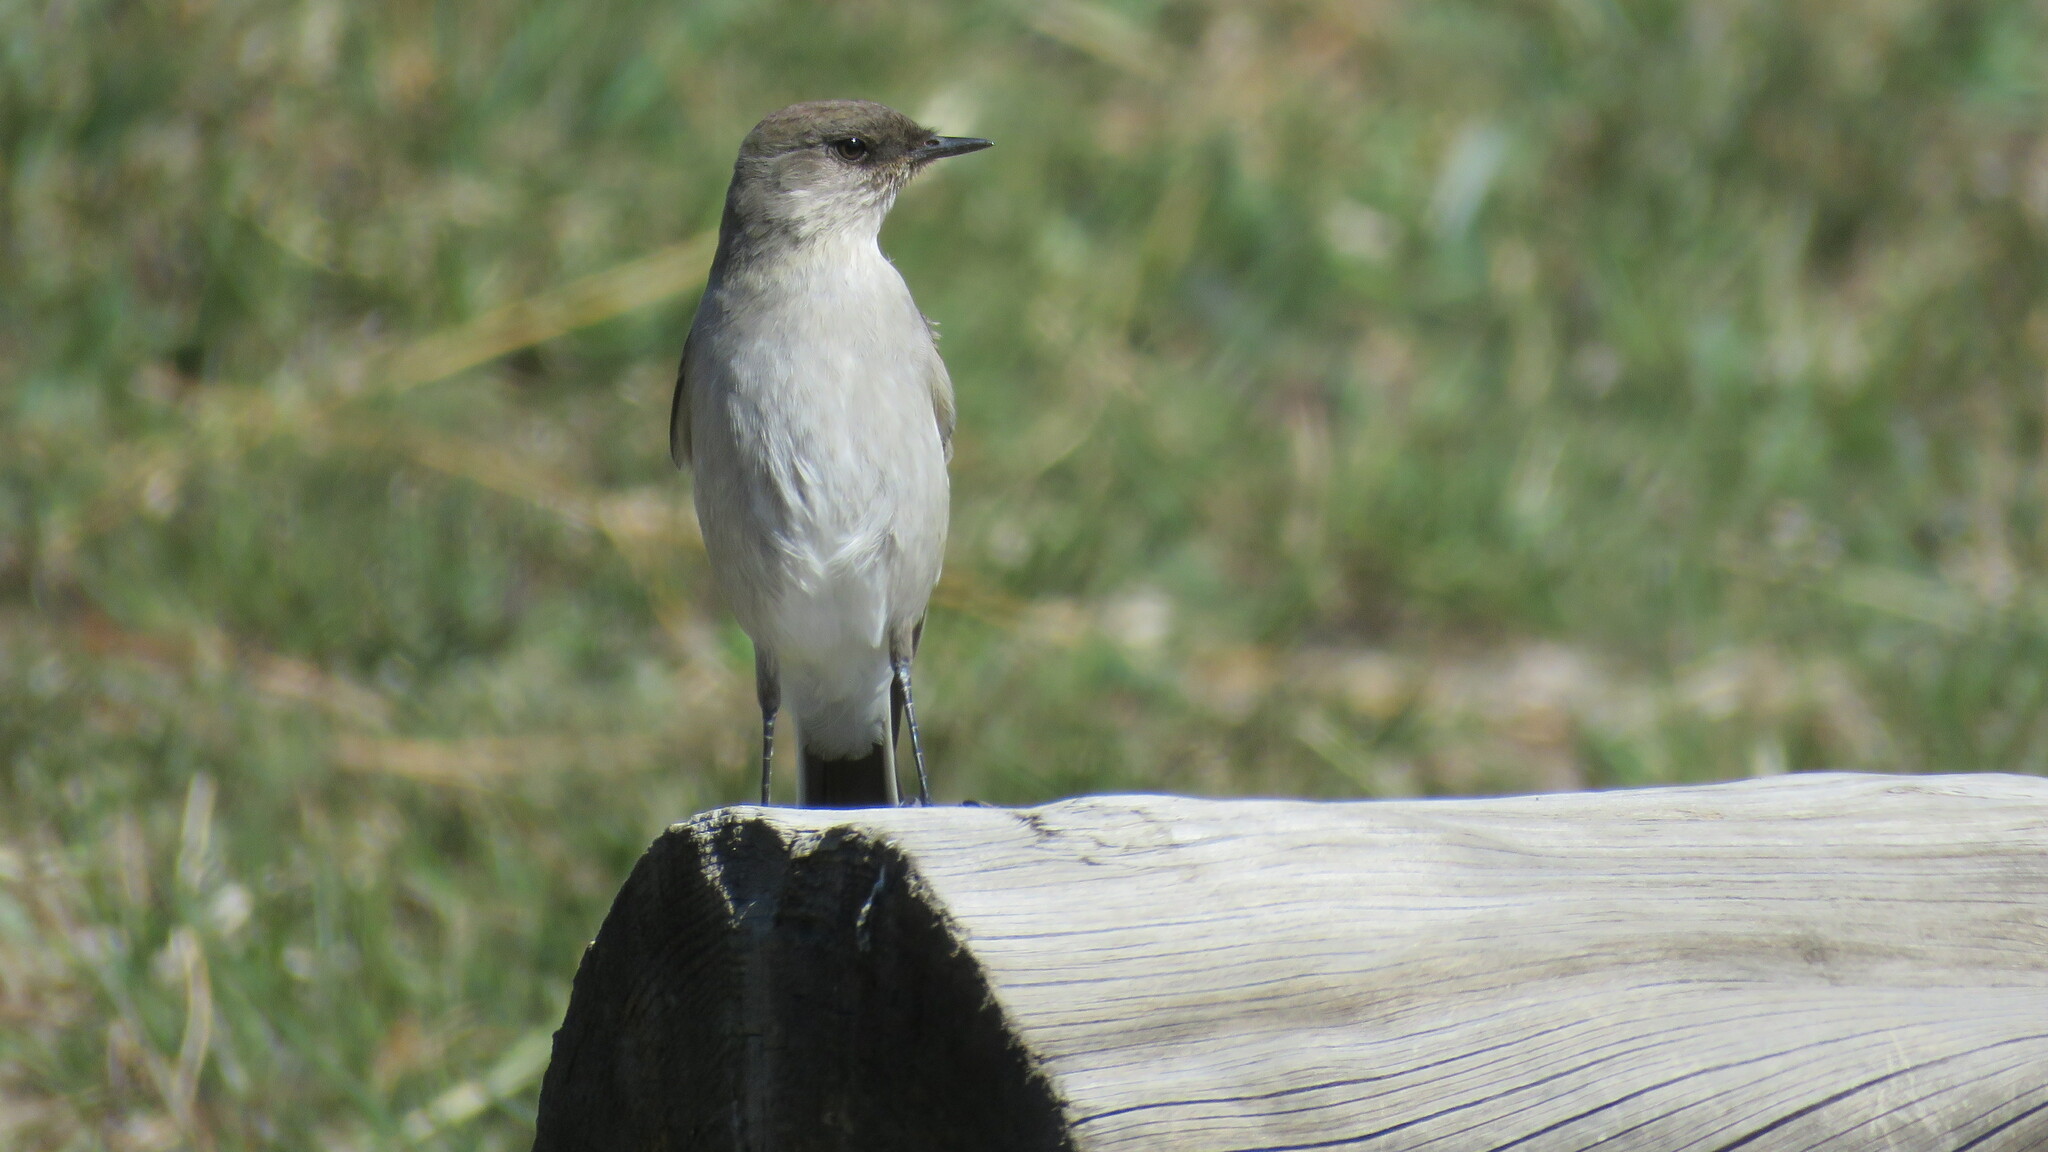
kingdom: Animalia
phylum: Chordata
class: Aves
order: Passeriformes
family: Tyrannidae
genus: Muscisaxicola
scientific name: Muscisaxicola maclovianus
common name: Dark-faced ground tyrant
